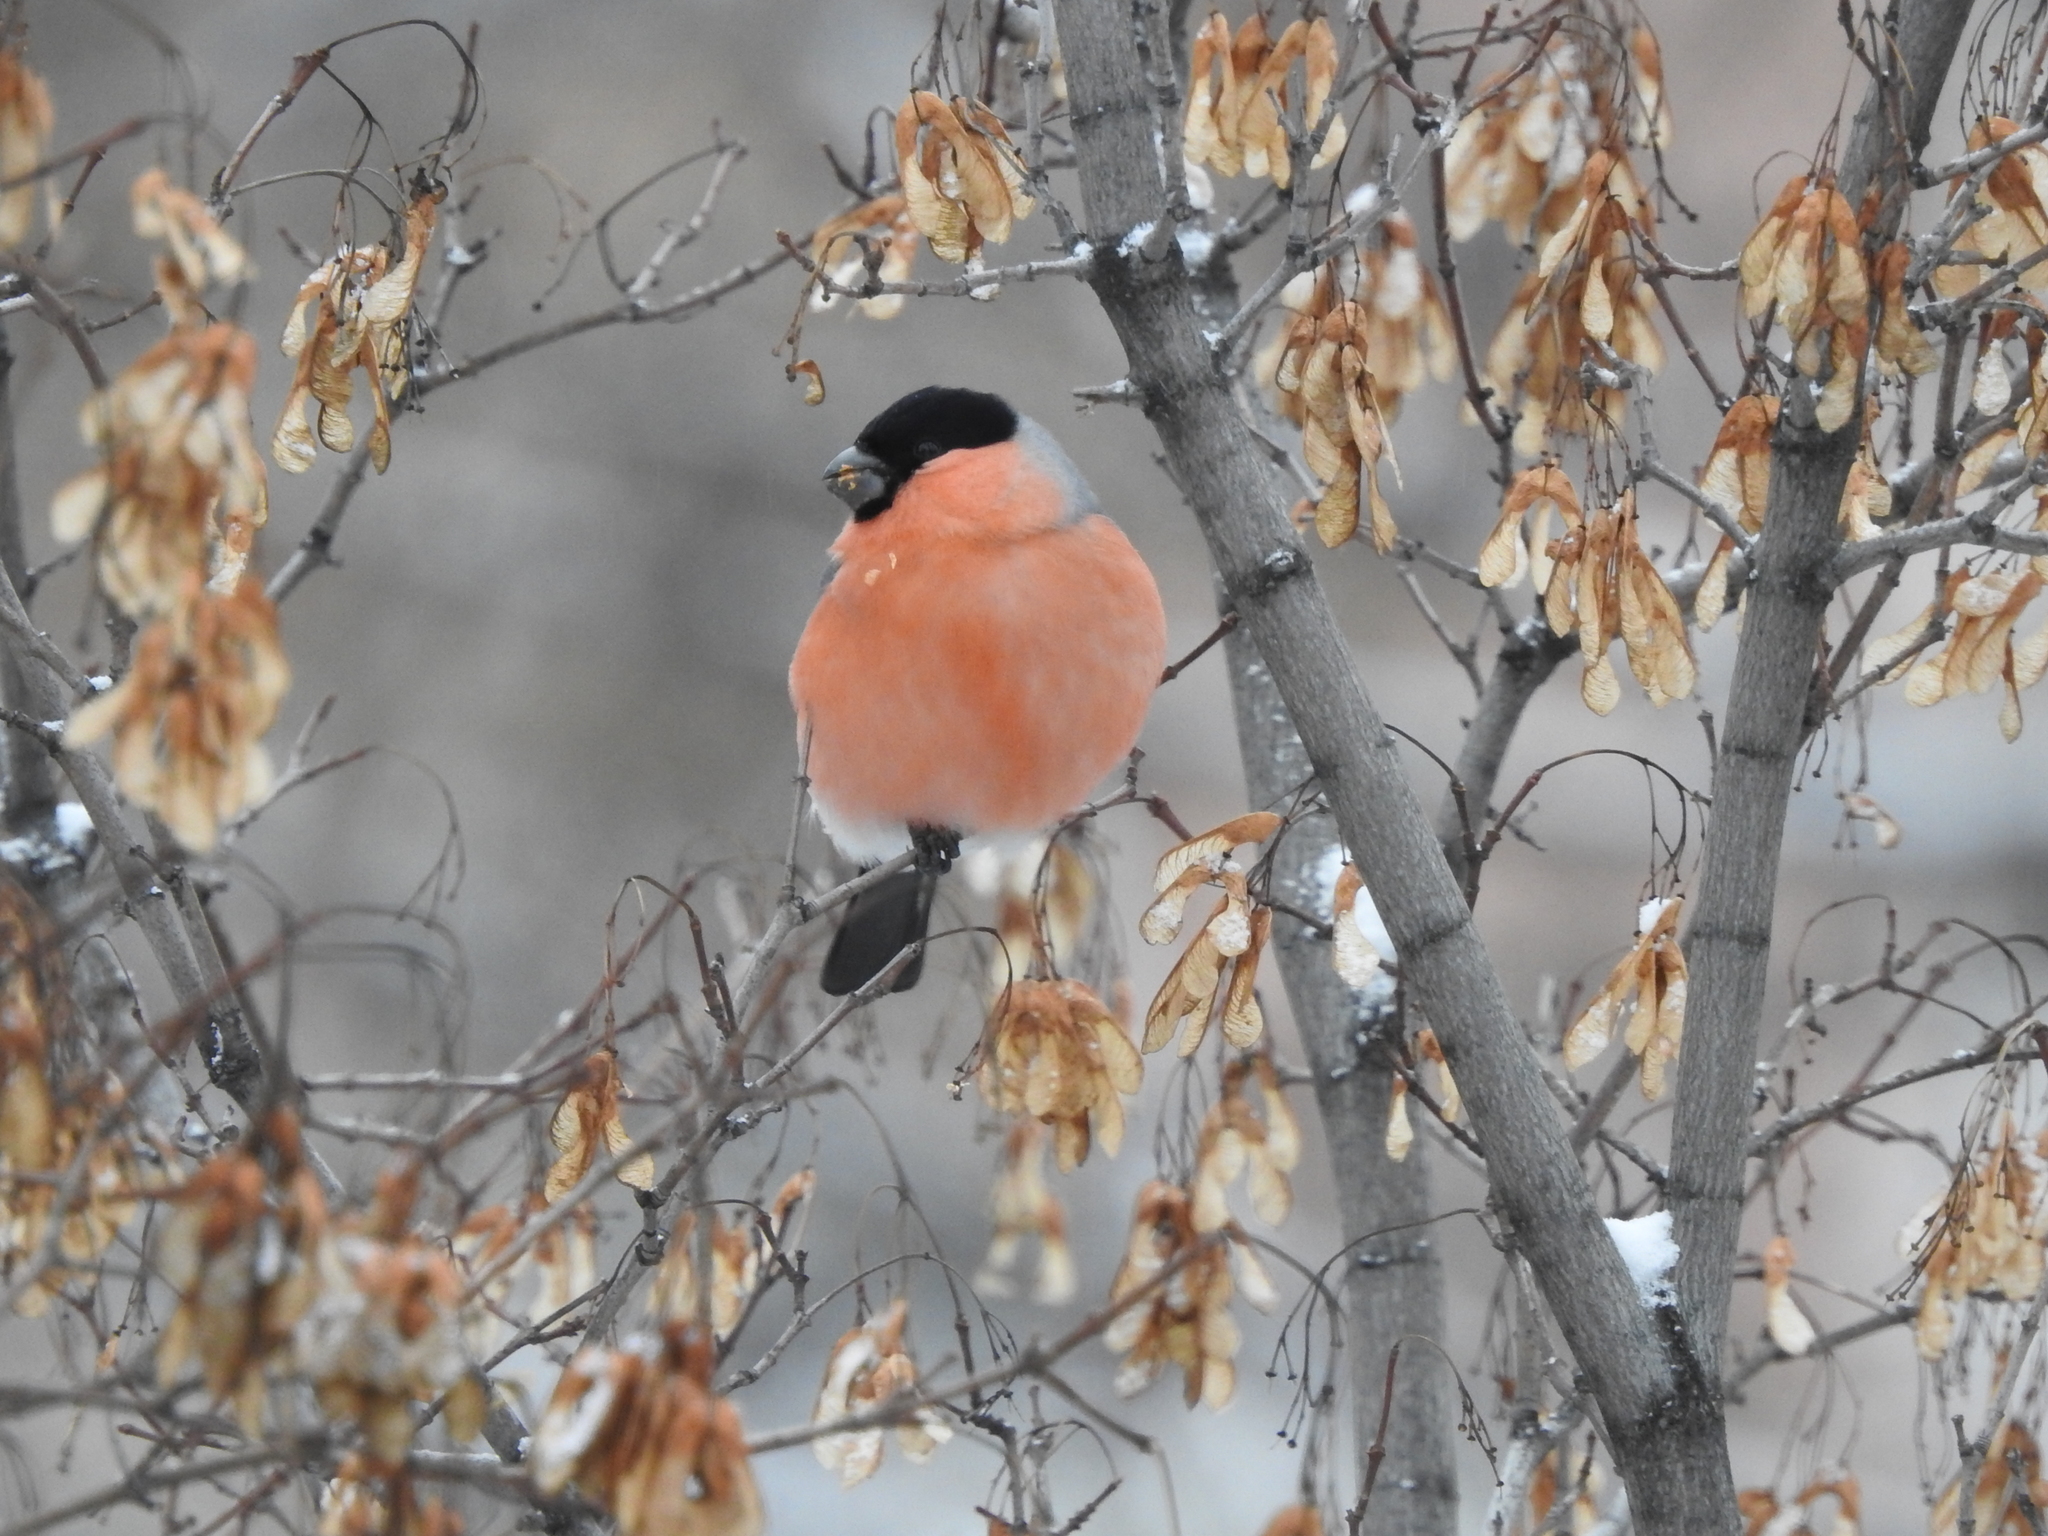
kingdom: Animalia
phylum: Chordata
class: Aves
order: Passeriformes
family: Fringillidae
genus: Pyrrhula
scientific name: Pyrrhula pyrrhula
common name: Eurasian bullfinch
